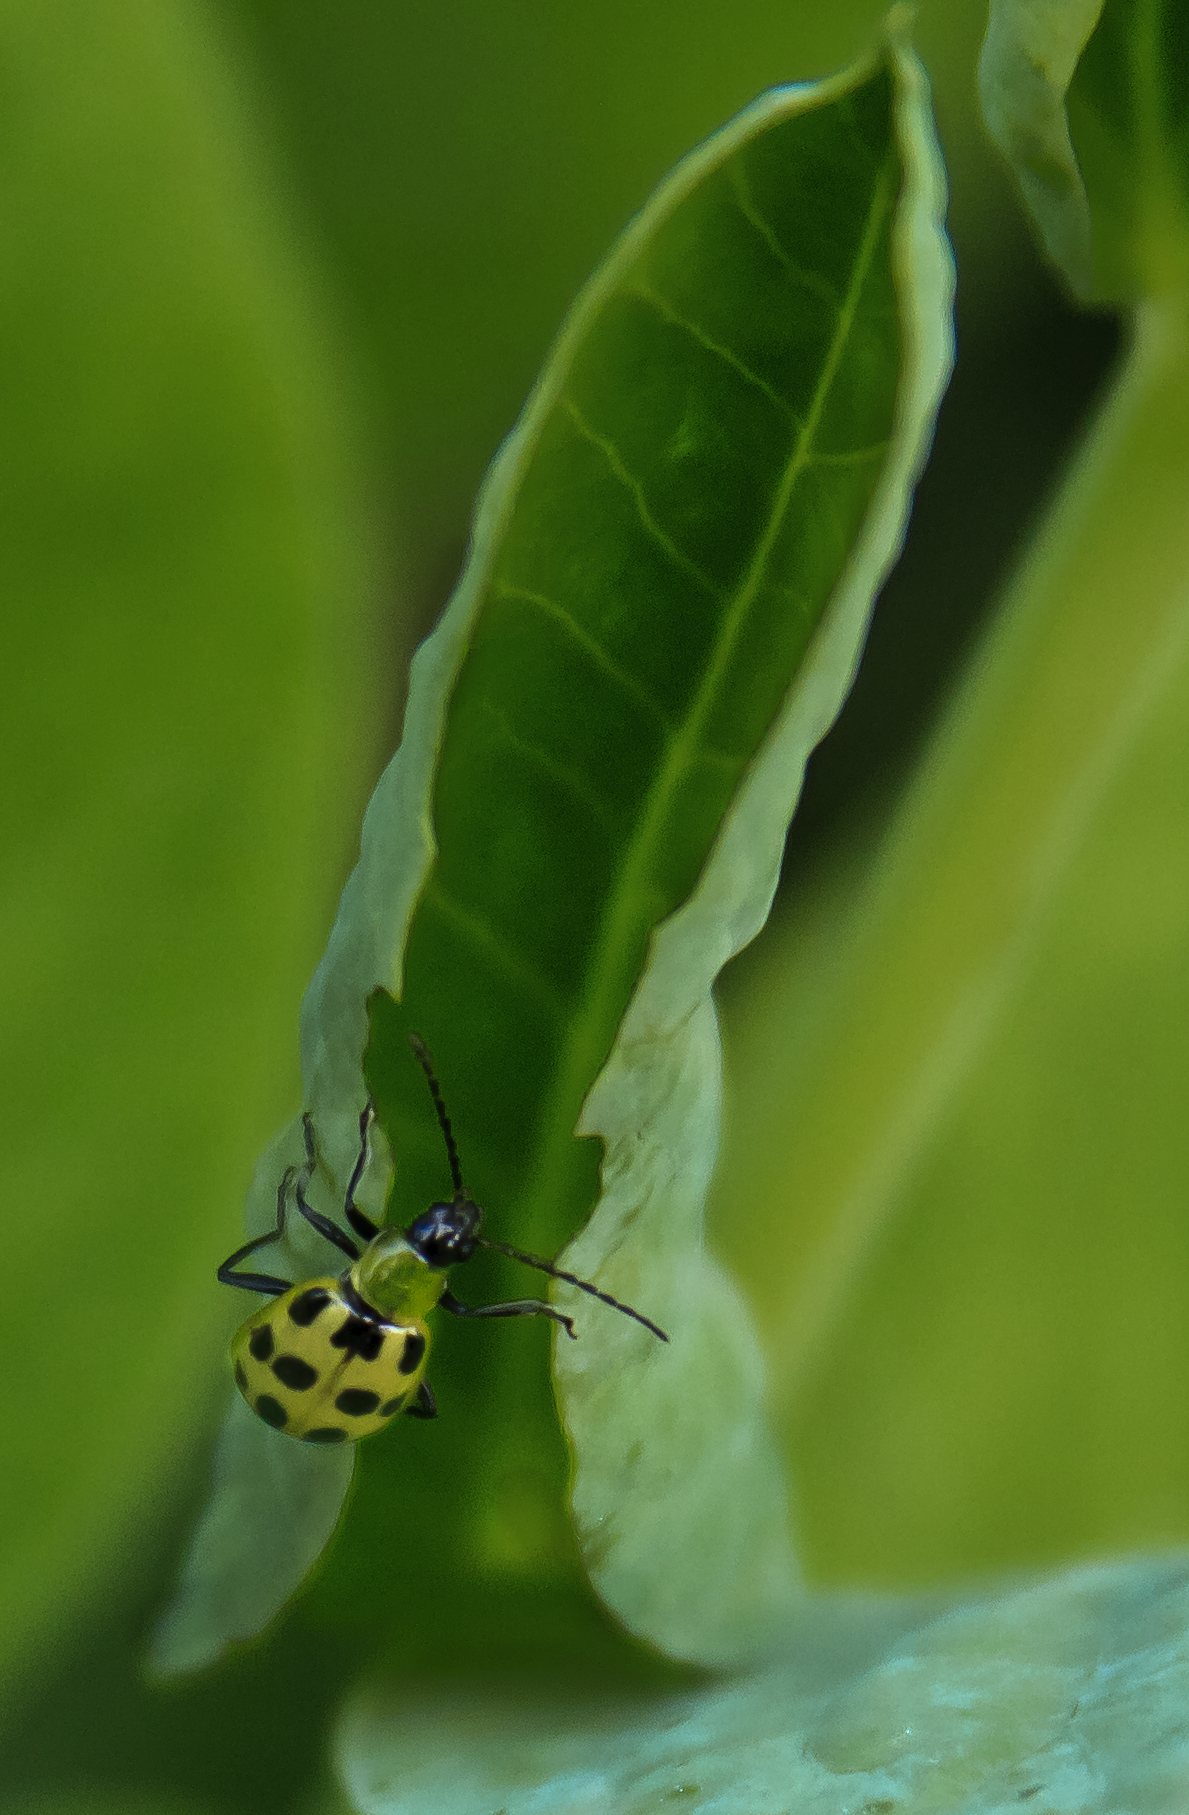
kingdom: Animalia
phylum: Arthropoda
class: Insecta
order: Coleoptera
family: Chrysomelidae
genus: Diabrotica
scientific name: Diabrotica undecimpunctata
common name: Spotted cucumber beetle
